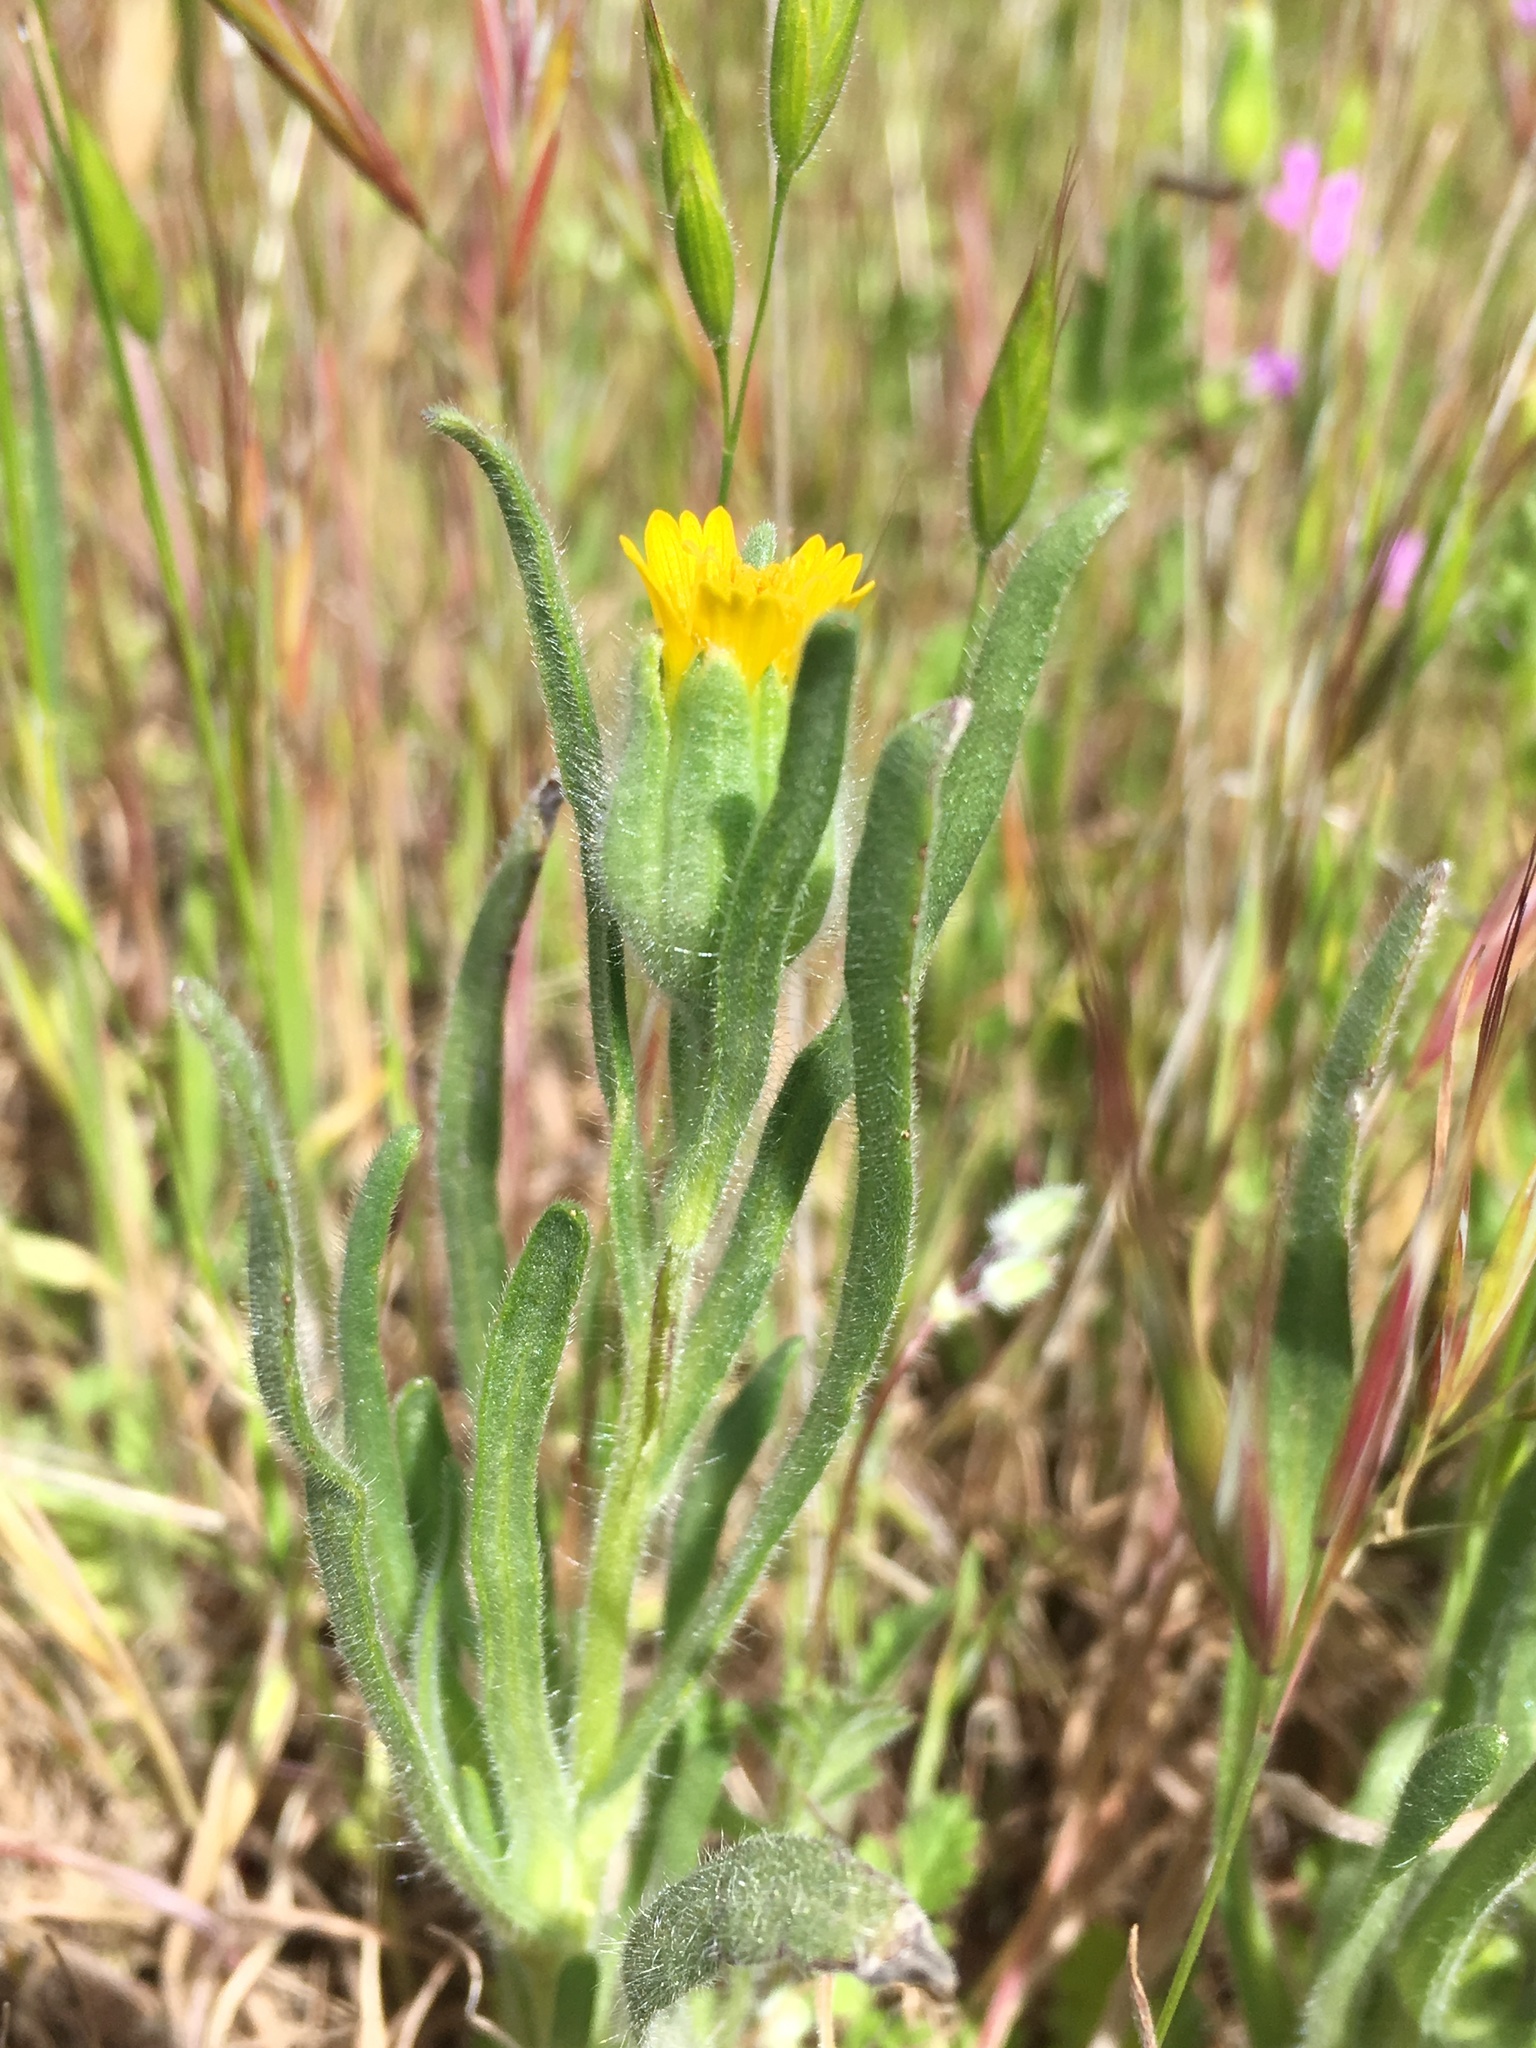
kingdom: Plantae
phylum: Tracheophyta
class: Magnoliopsida
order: Asterales
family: Asteraceae
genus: Achyrachaena
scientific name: Achyrachaena mollis
